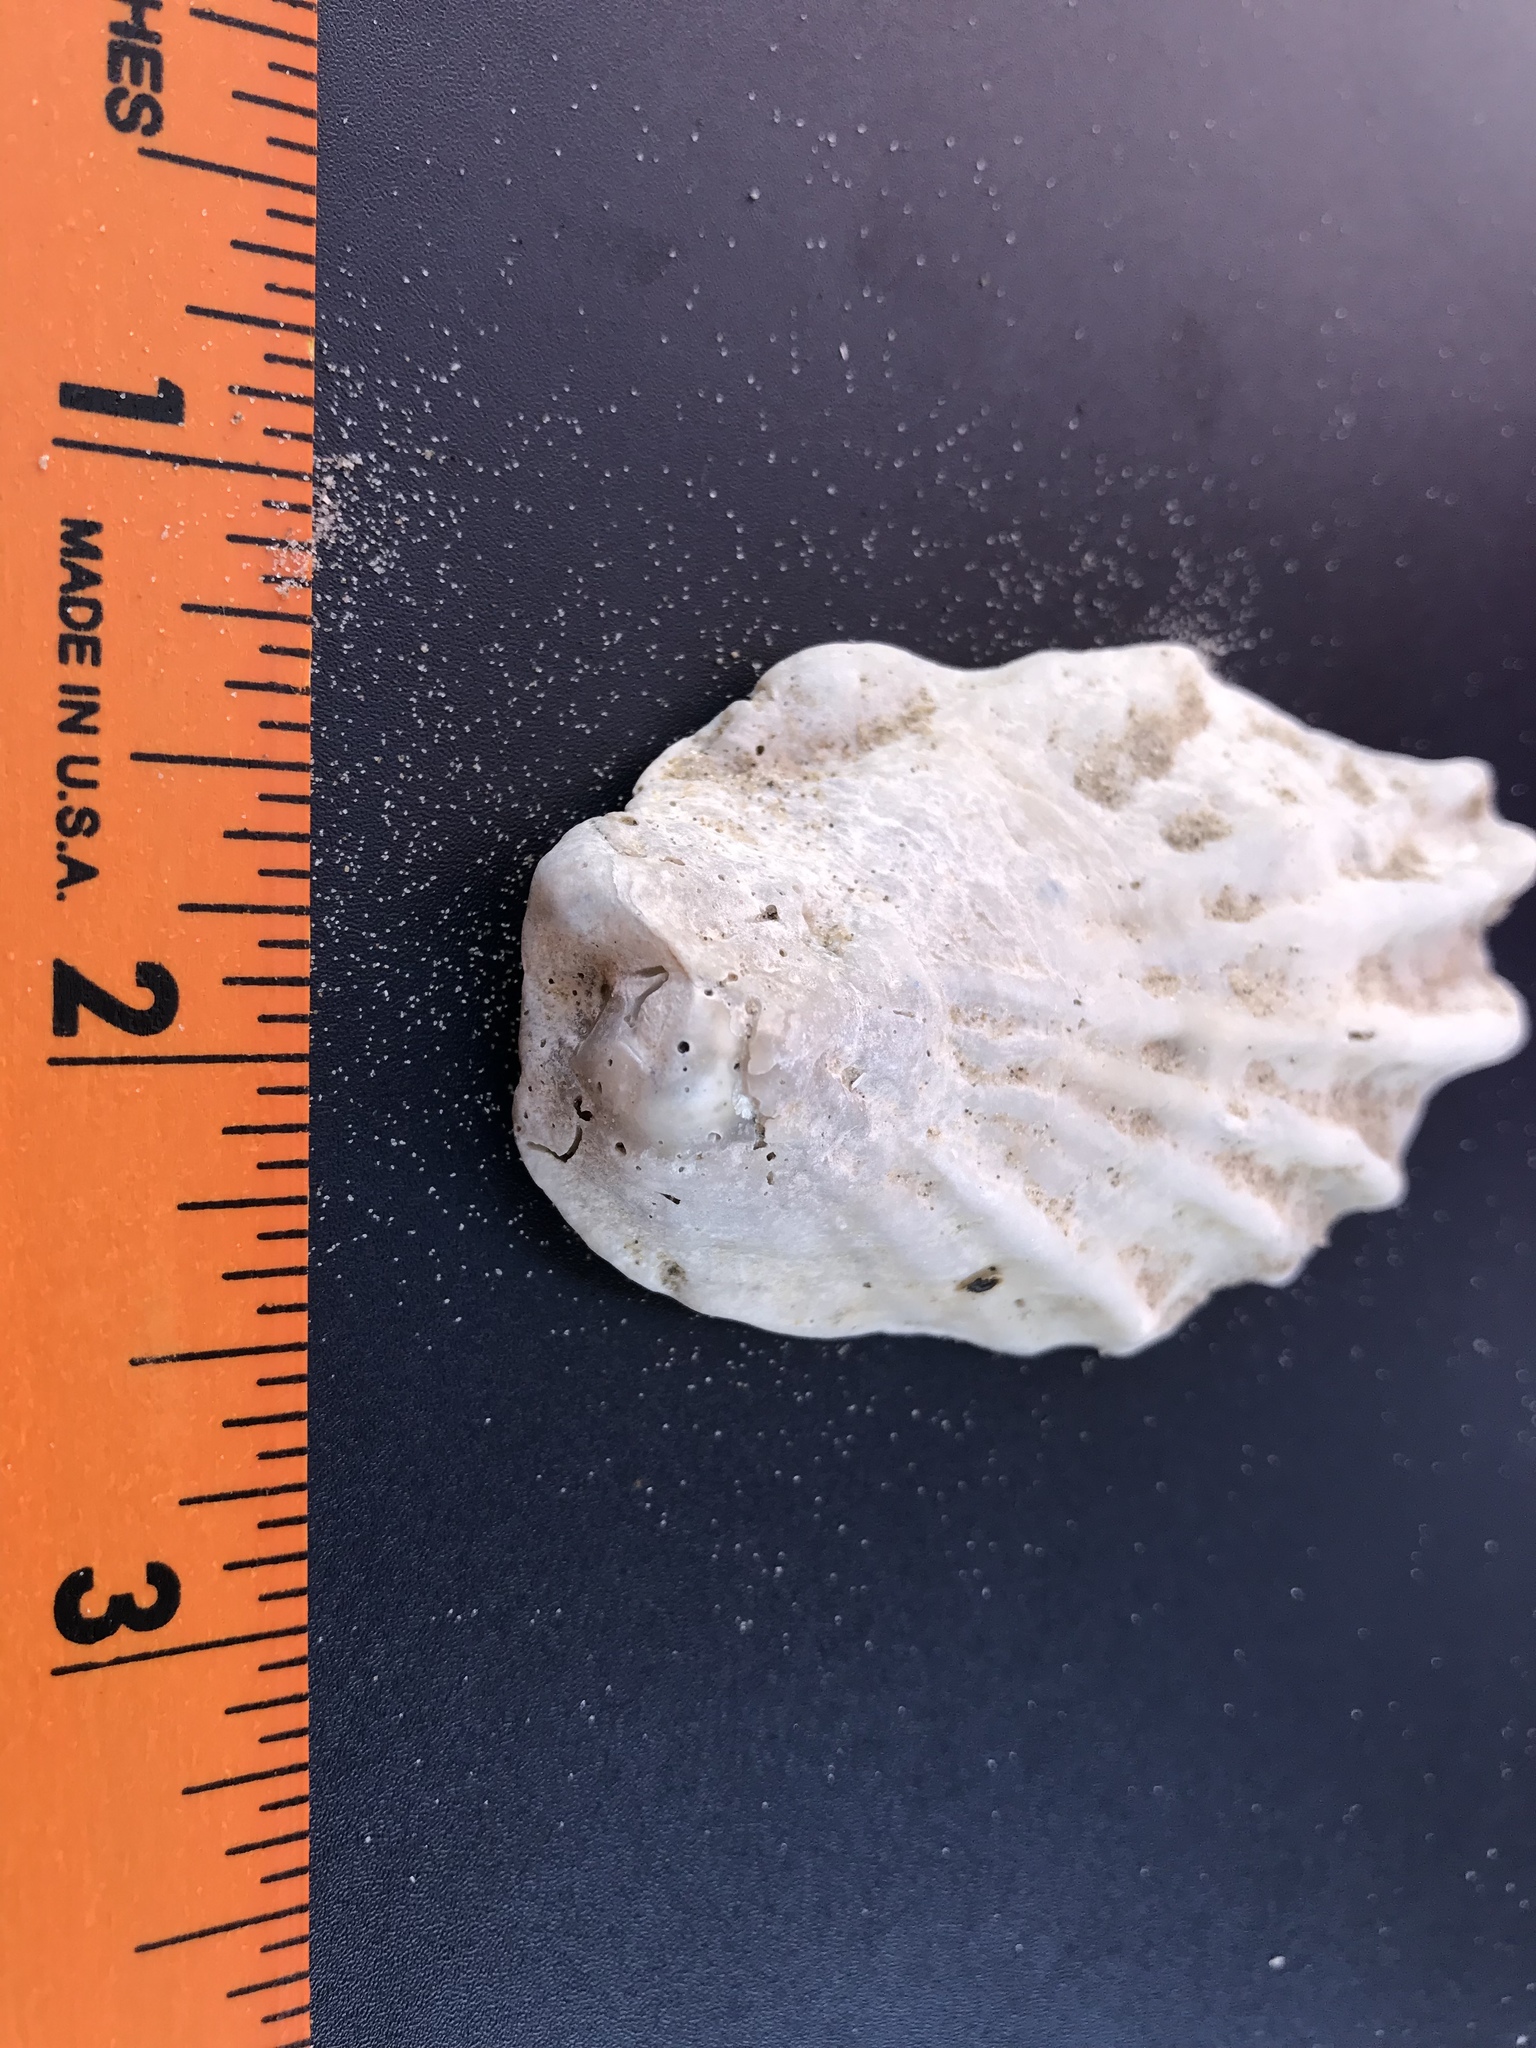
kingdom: Animalia
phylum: Mollusca
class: Bivalvia
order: Ostreida
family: Ostreidae
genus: Crassostrea
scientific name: Crassostrea virginica
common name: American oyster
